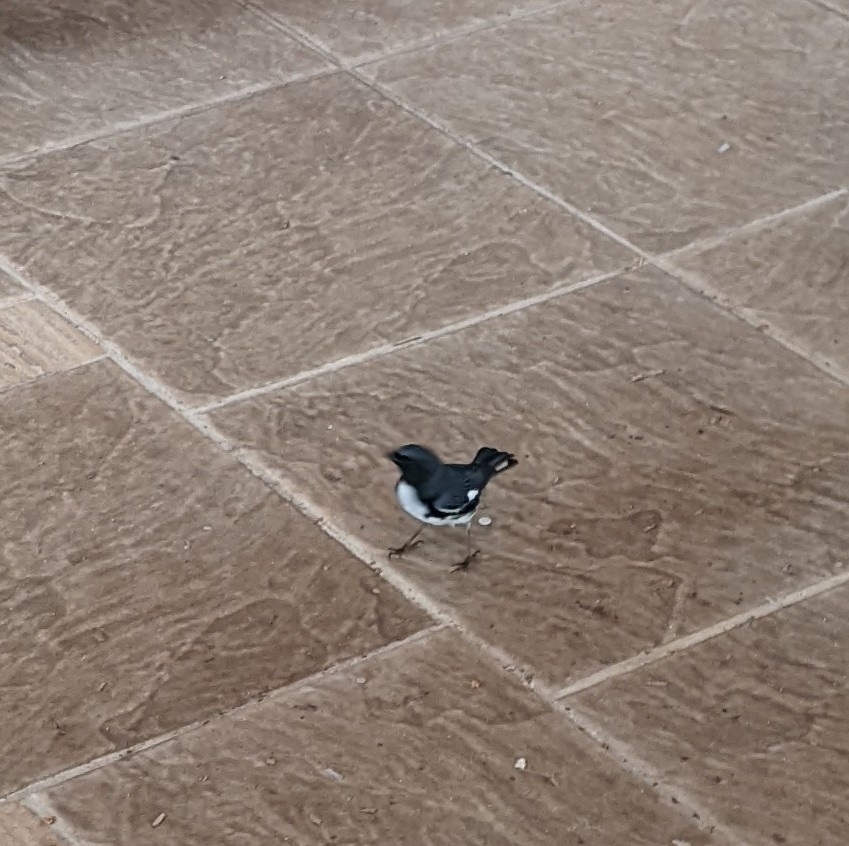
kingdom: Animalia
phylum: Chordata
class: Aves
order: Passeriformes
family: Parulidae
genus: Setophaga
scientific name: Setophaga caerulescens
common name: Black-throated blue warbler
